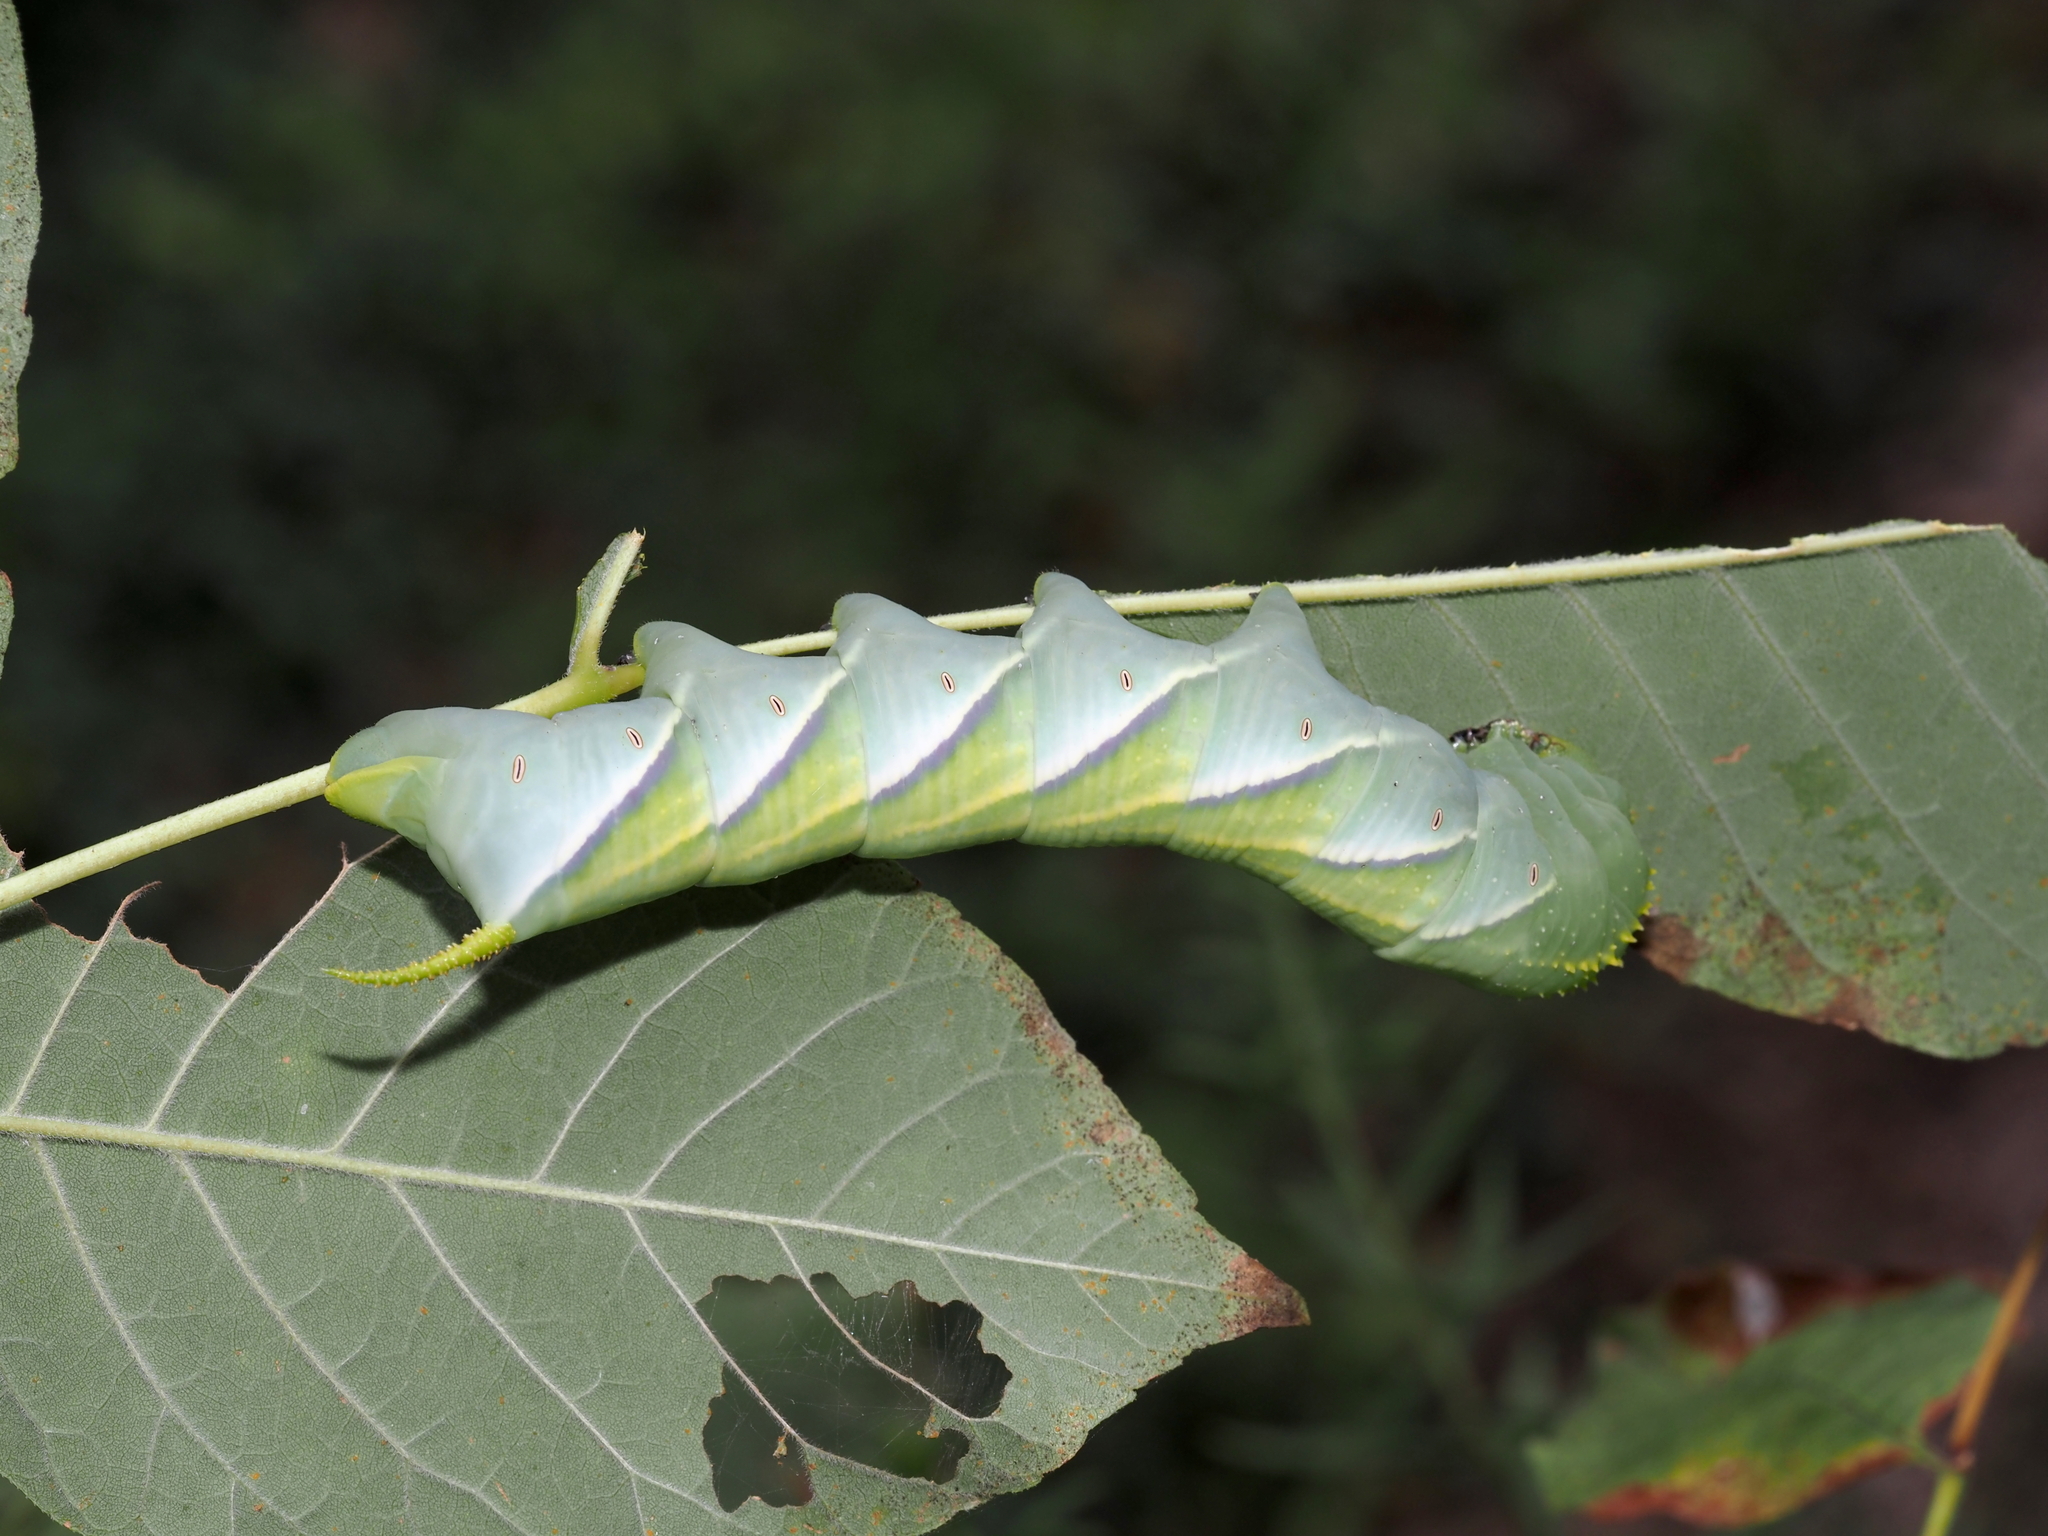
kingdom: Animalia
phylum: Arthropoda
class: Insecta
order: Lepidoptera
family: Sphingidae
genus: Manduca
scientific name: Manduca rustica
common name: Rustic sphinx
